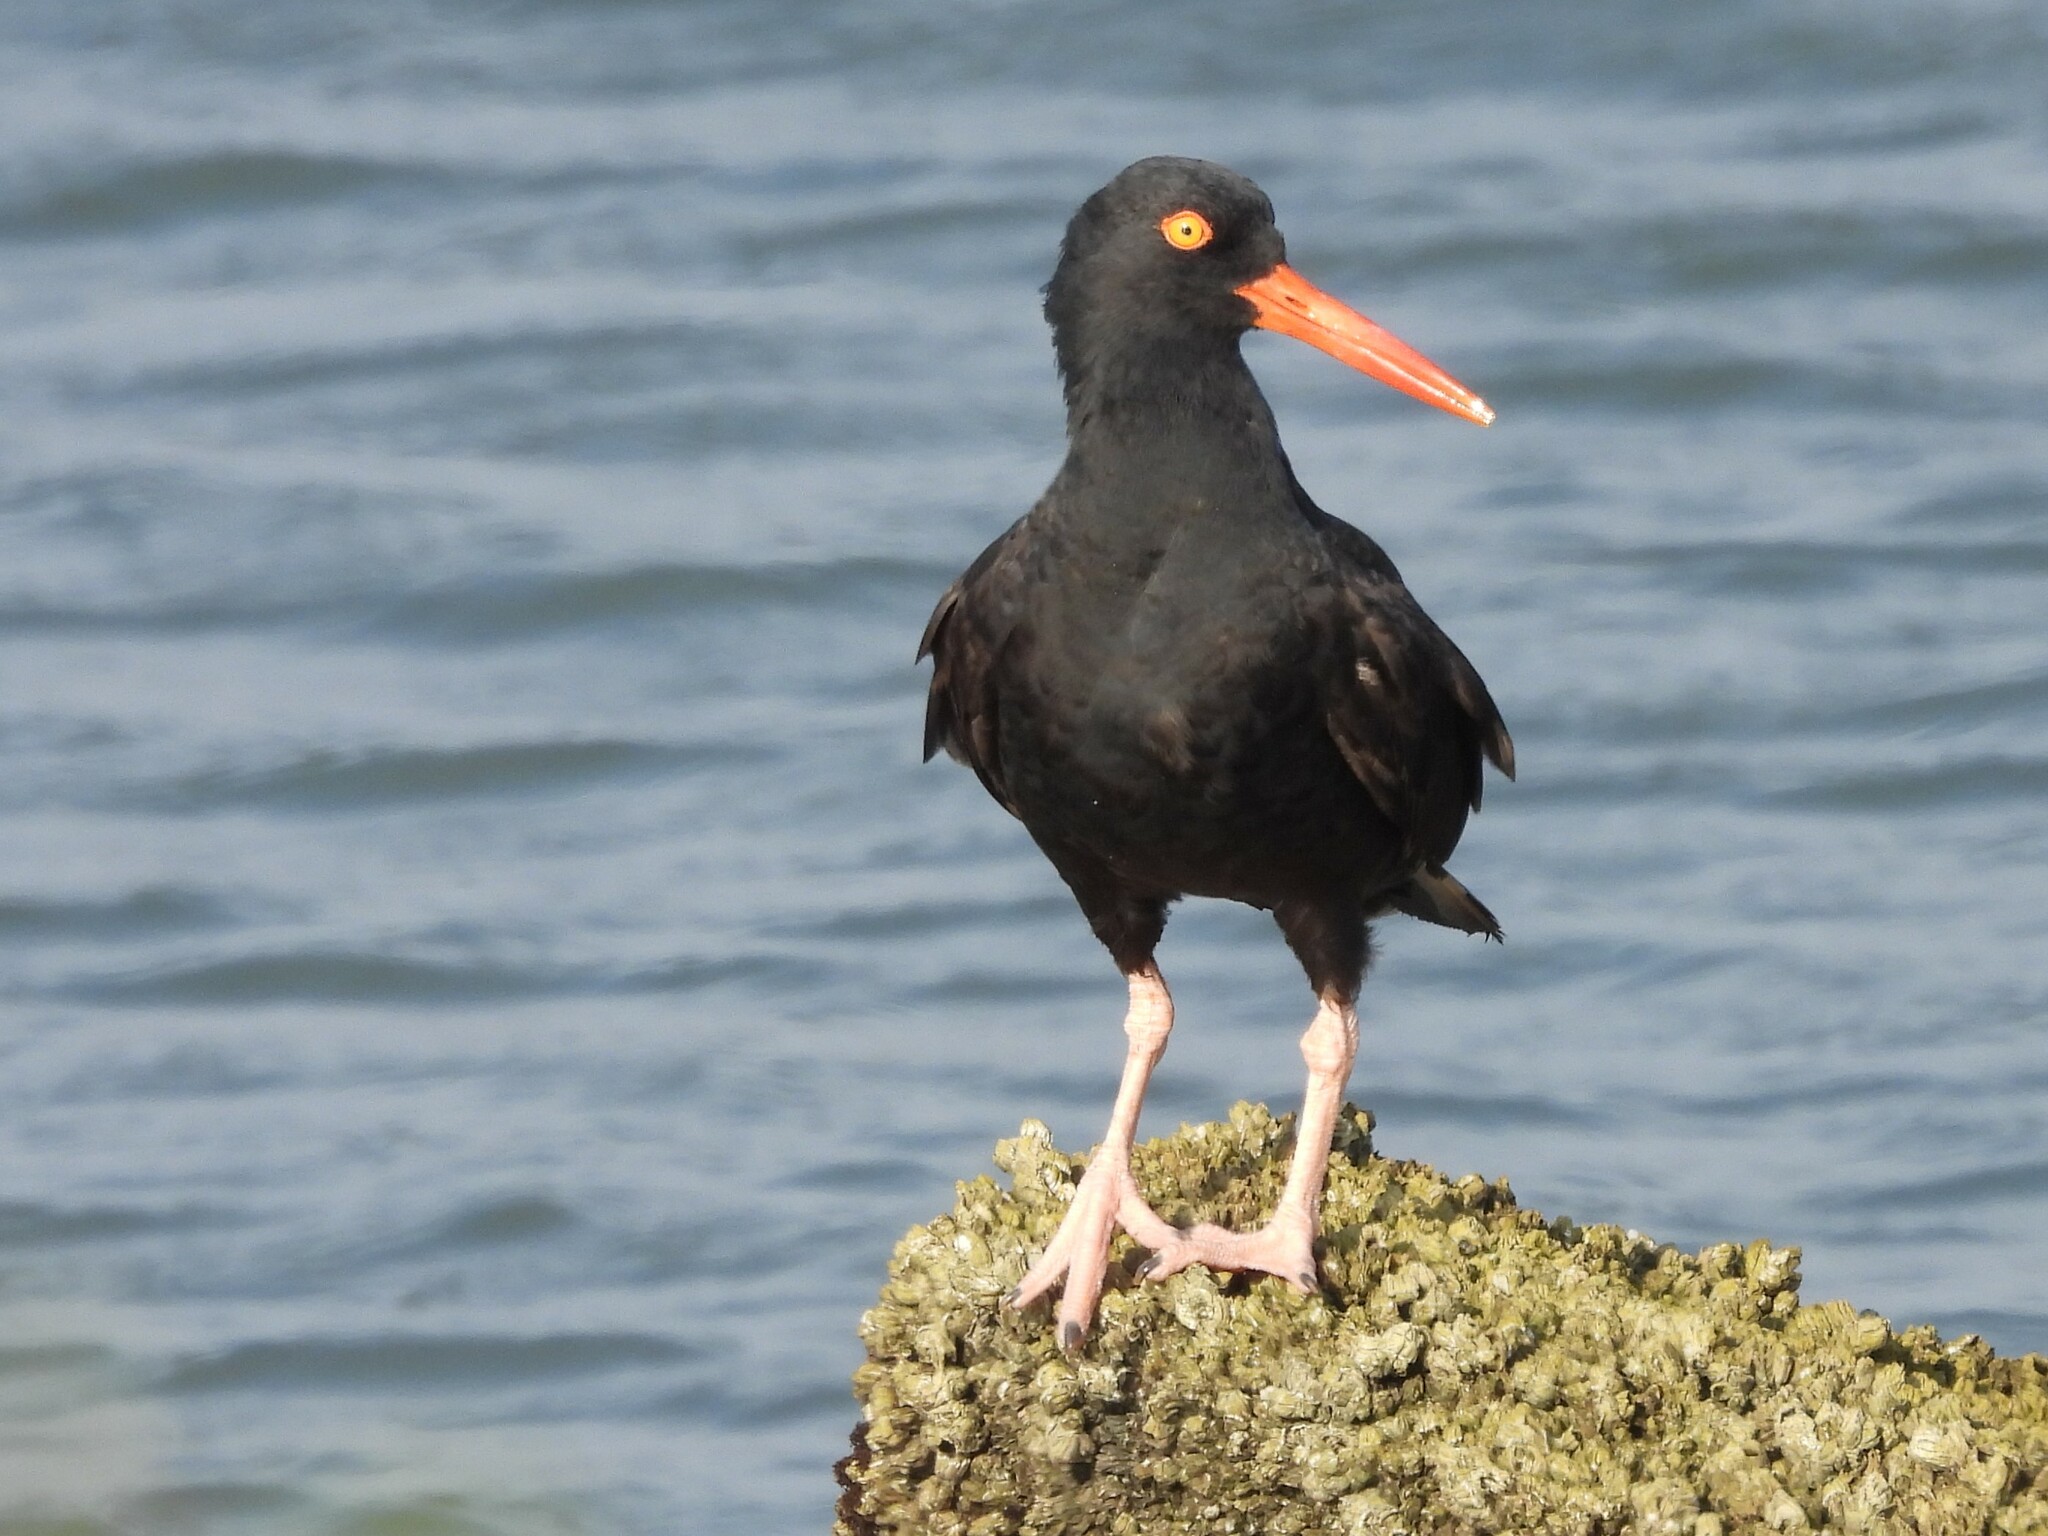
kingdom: Animalia
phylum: Chordata
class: Aves
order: Charadriiformes
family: Haematopodidae
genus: Haematopus
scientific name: Haematopus bachmani
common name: Black oystercatcher
